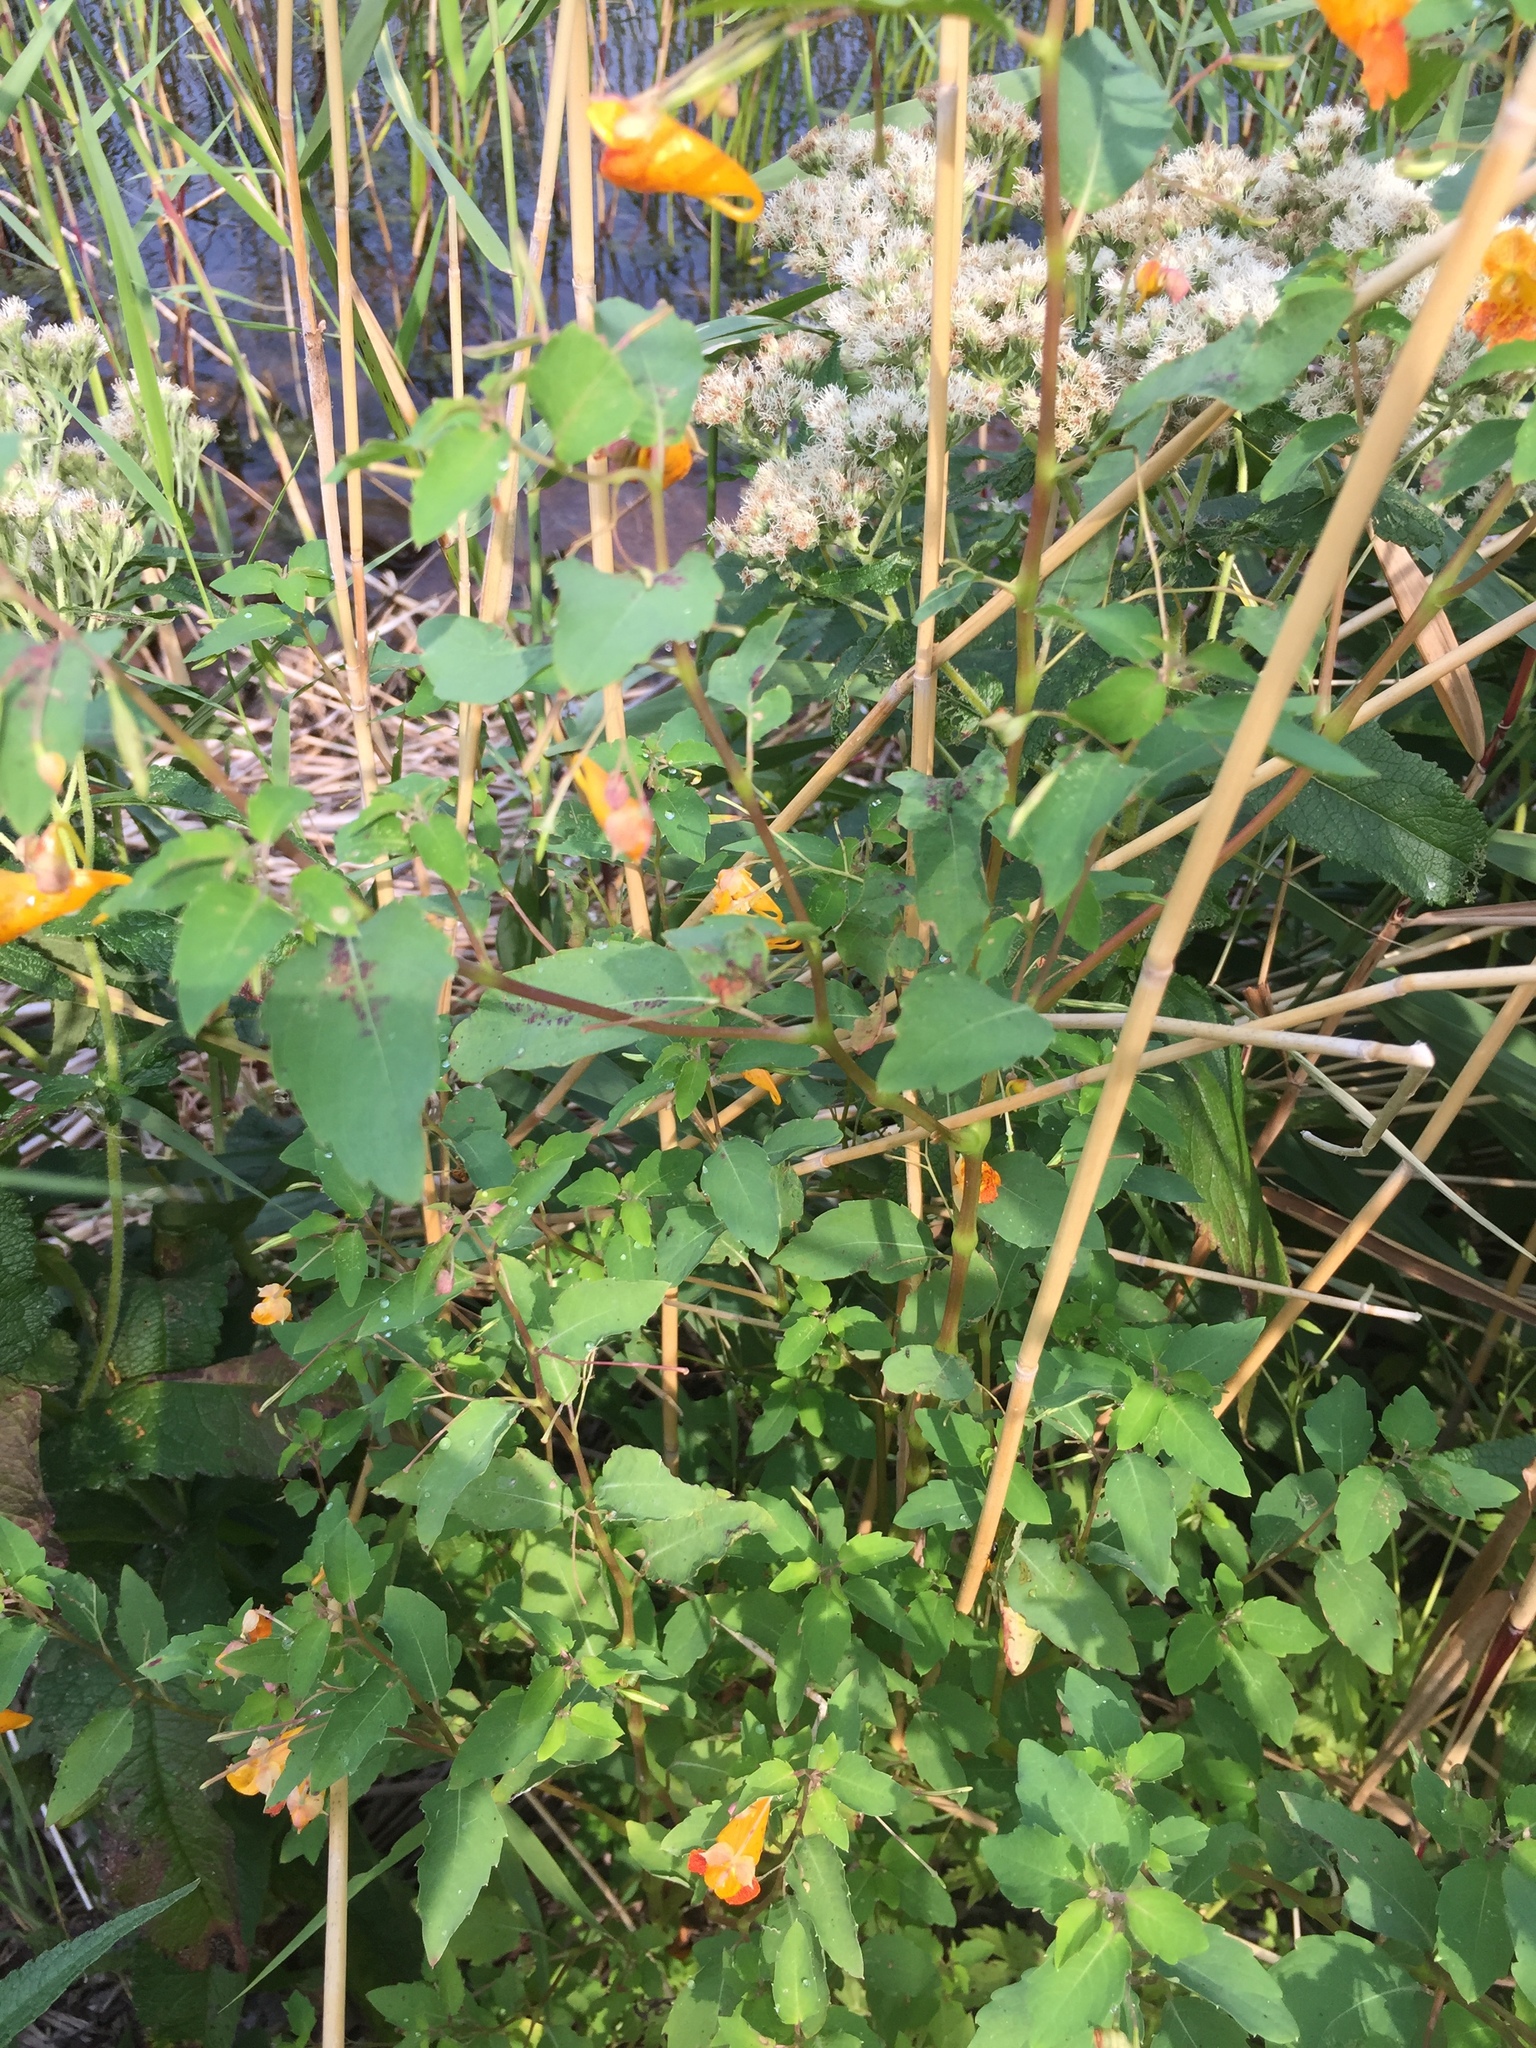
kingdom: Plantae
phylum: Tracheophyta
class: Magnoliopsida
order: Ericales
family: Balsaminaceae
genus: Impatiens
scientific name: Impatiens capensis
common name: Orange balsam
